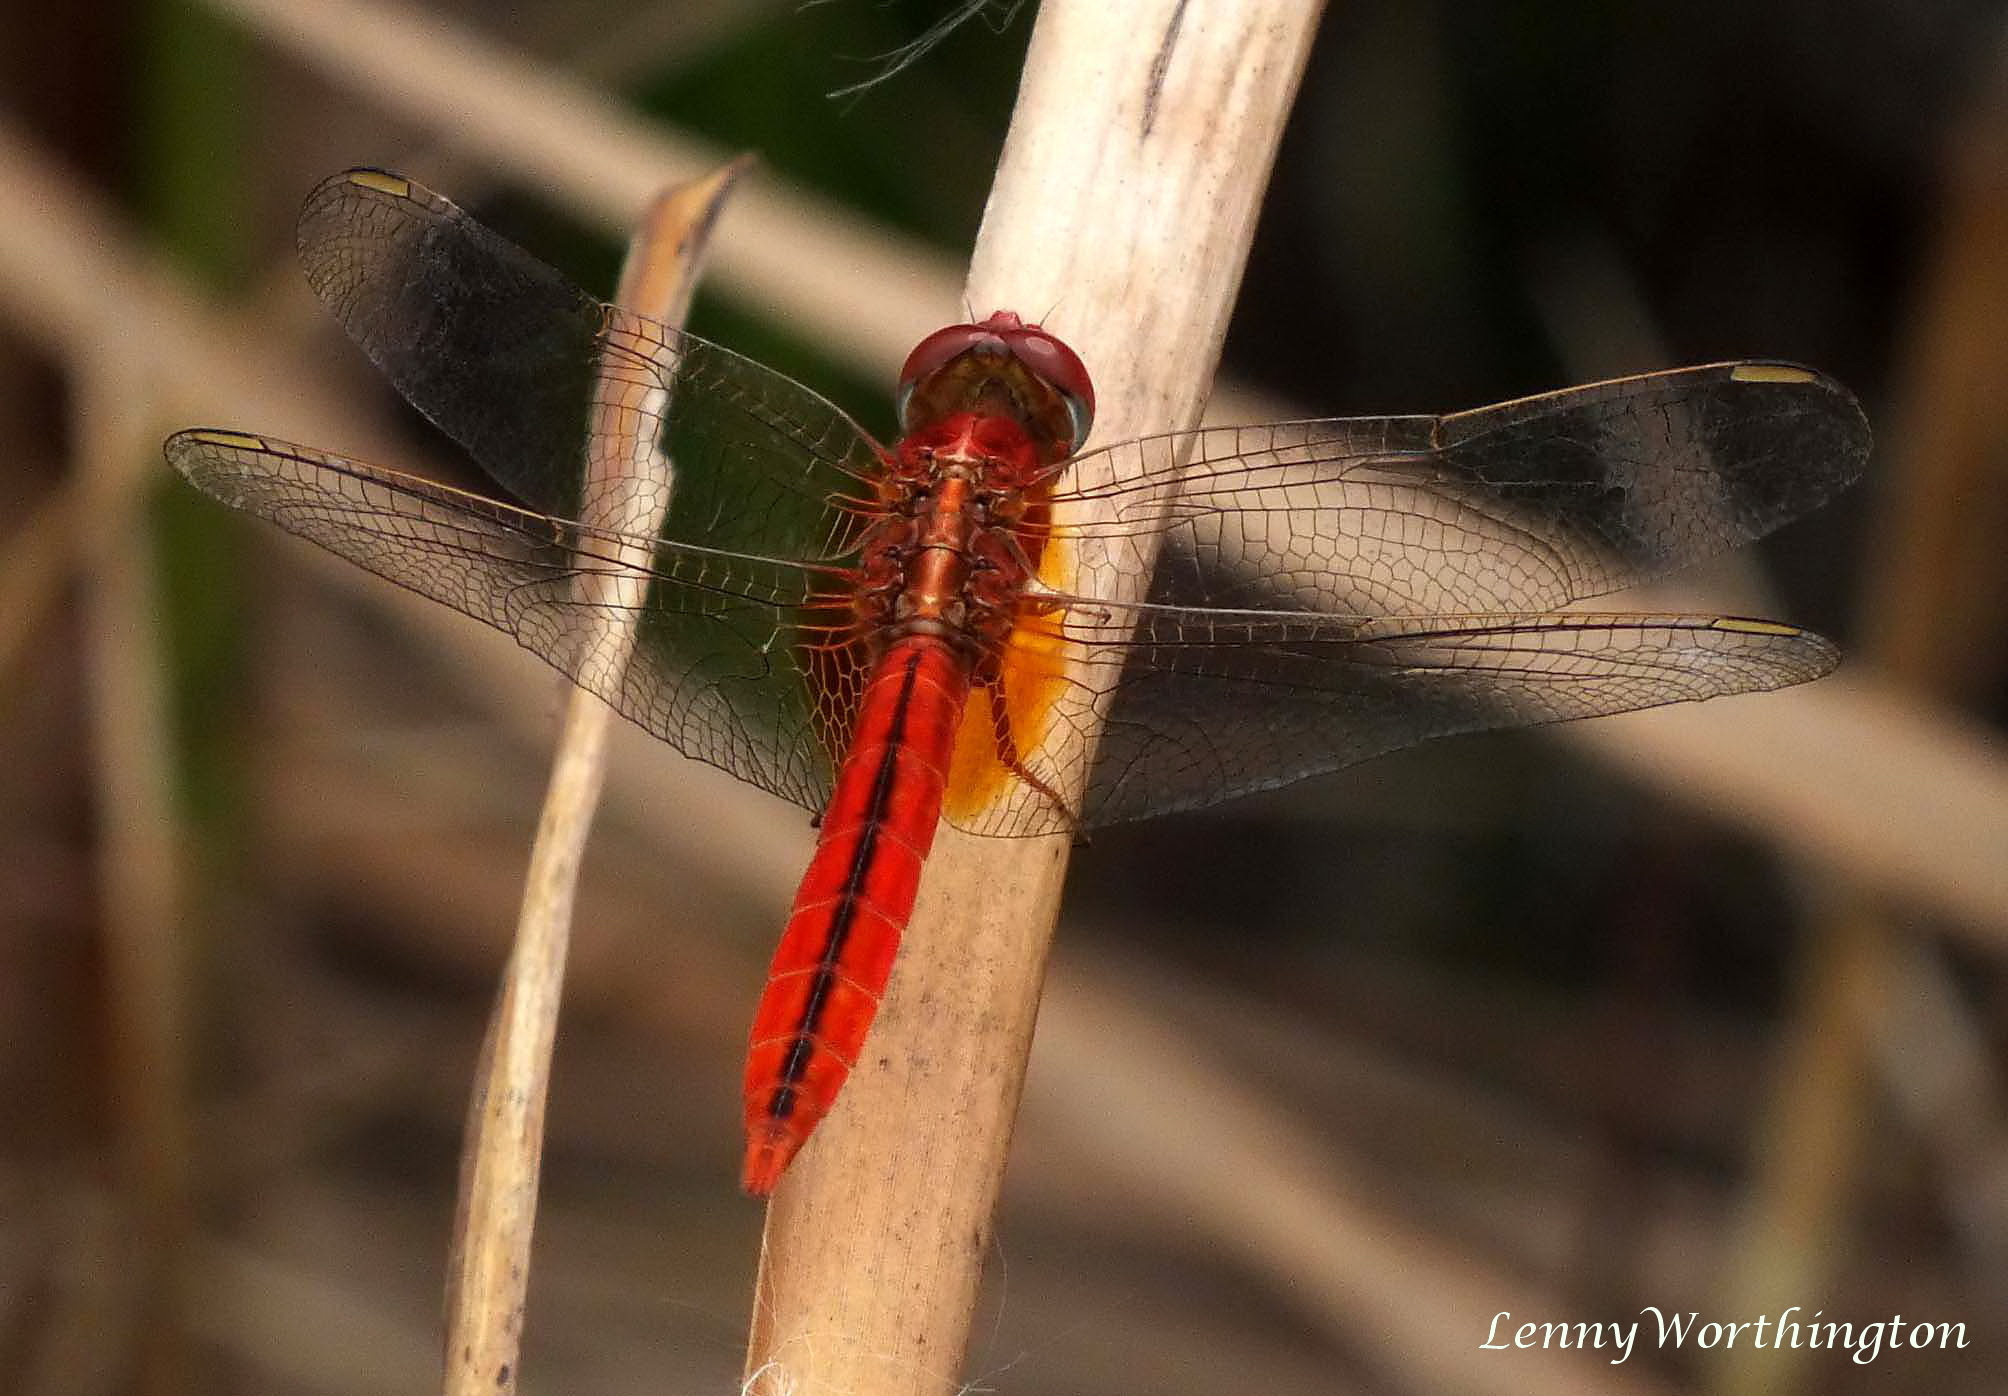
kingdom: Animalia
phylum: Arthropoda
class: Insecta
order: Odonata
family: Libellulidae
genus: Crocothemis
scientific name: Crocothemis servilia
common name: Scarlet skimmer
